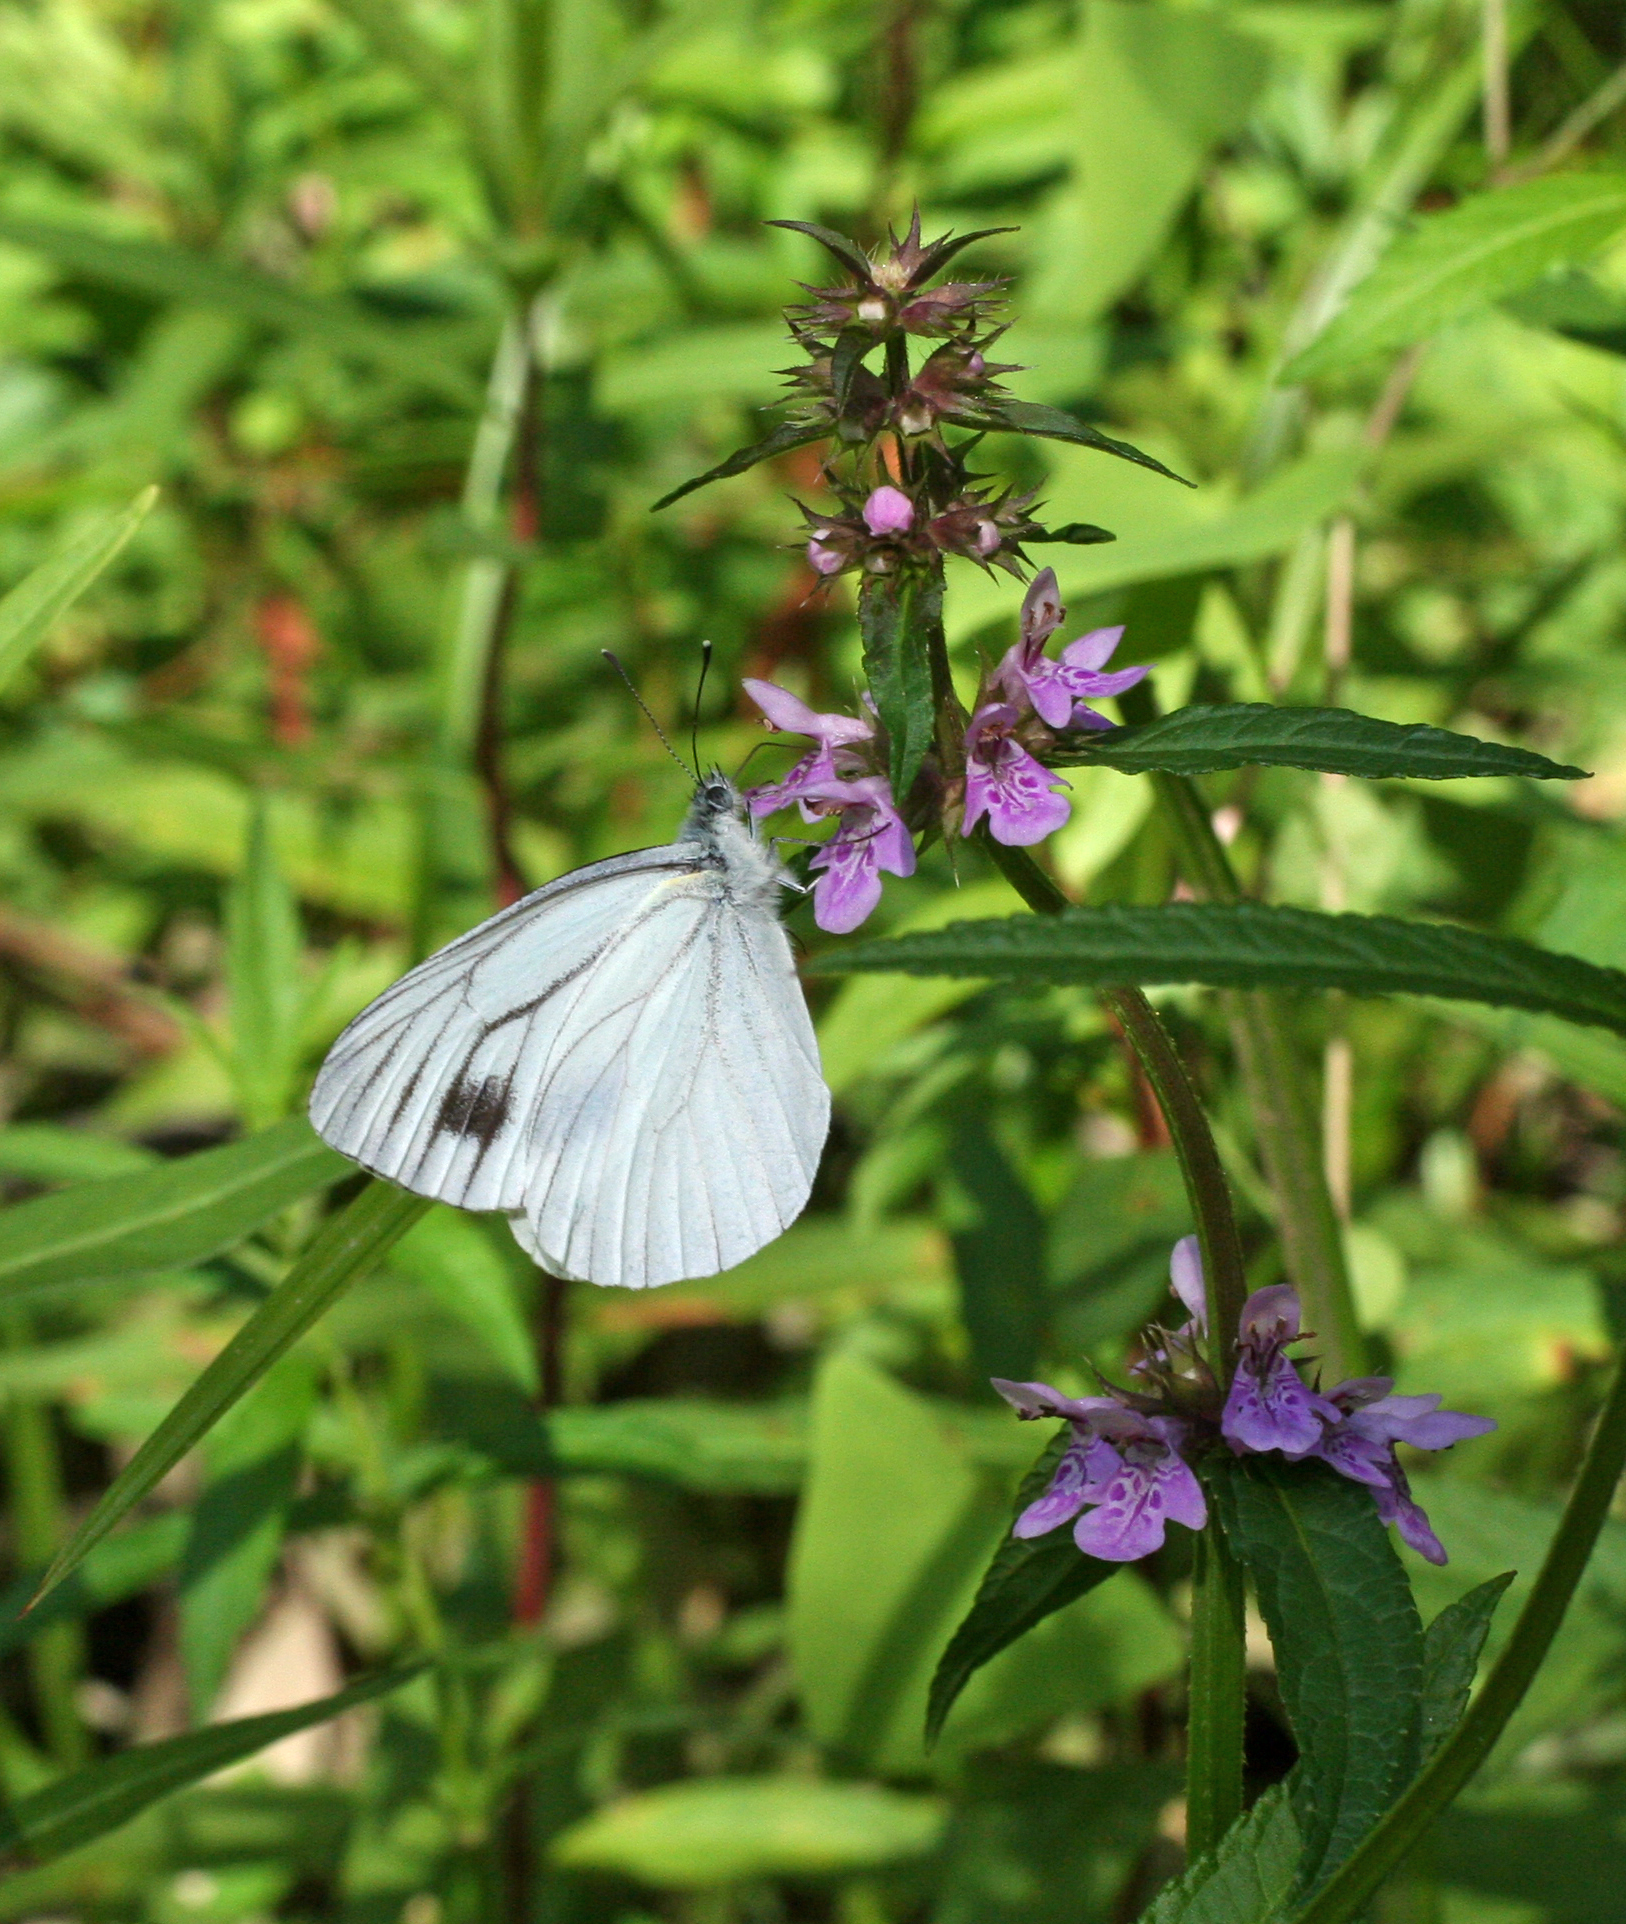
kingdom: Animalia
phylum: Arthropoda
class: Insecta
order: Lepidoptera
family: Pieridae
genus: Pieris
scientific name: Pieris dulcinea
